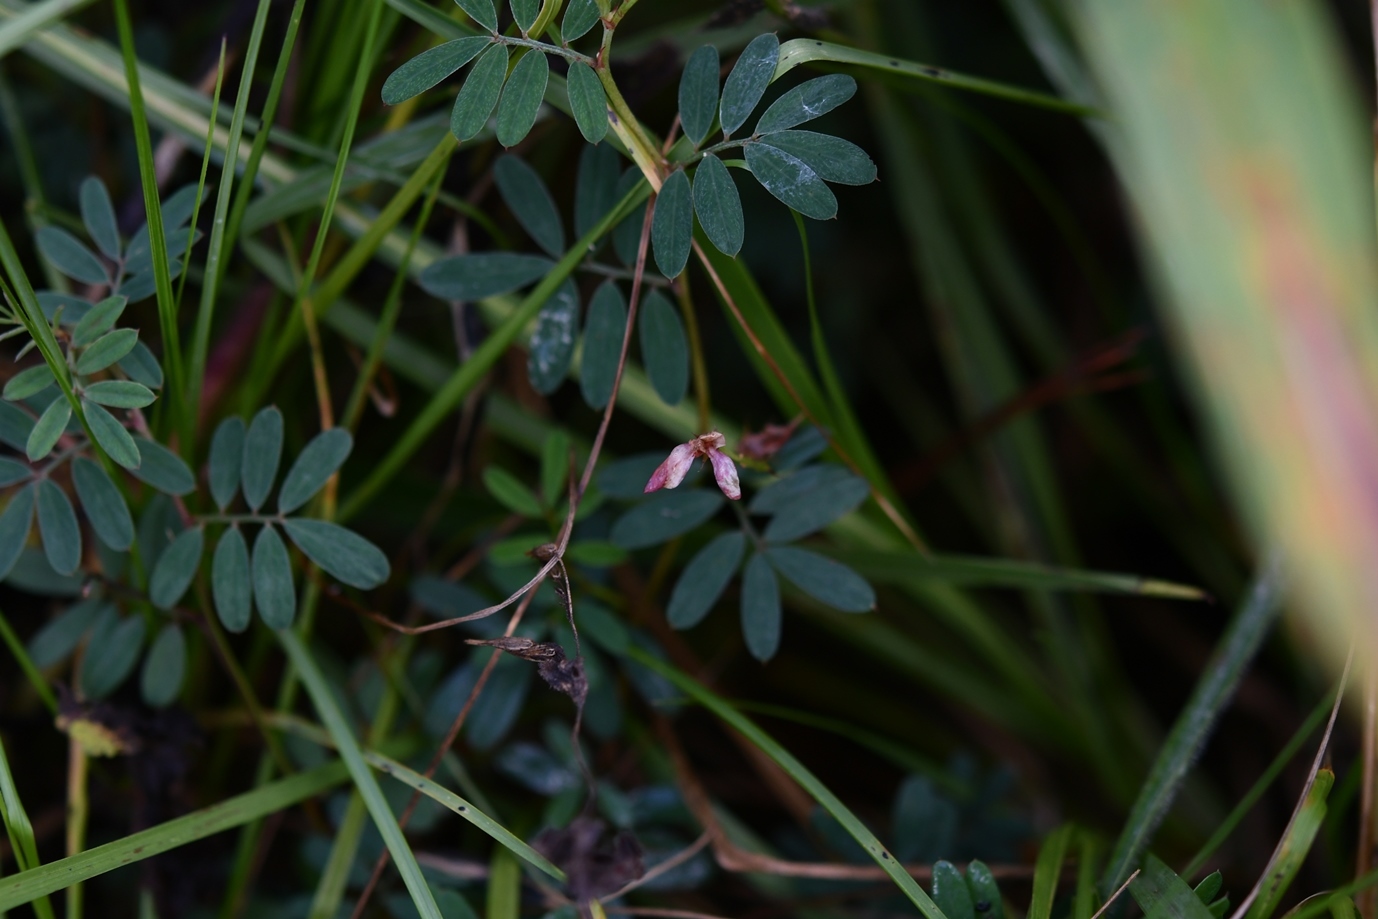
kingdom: Plantae
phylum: Tracheophyta
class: Magnoliopsida
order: Fabales
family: Fabaceae
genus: Indigofera
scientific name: Indigofera miniata
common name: Coast indigo
